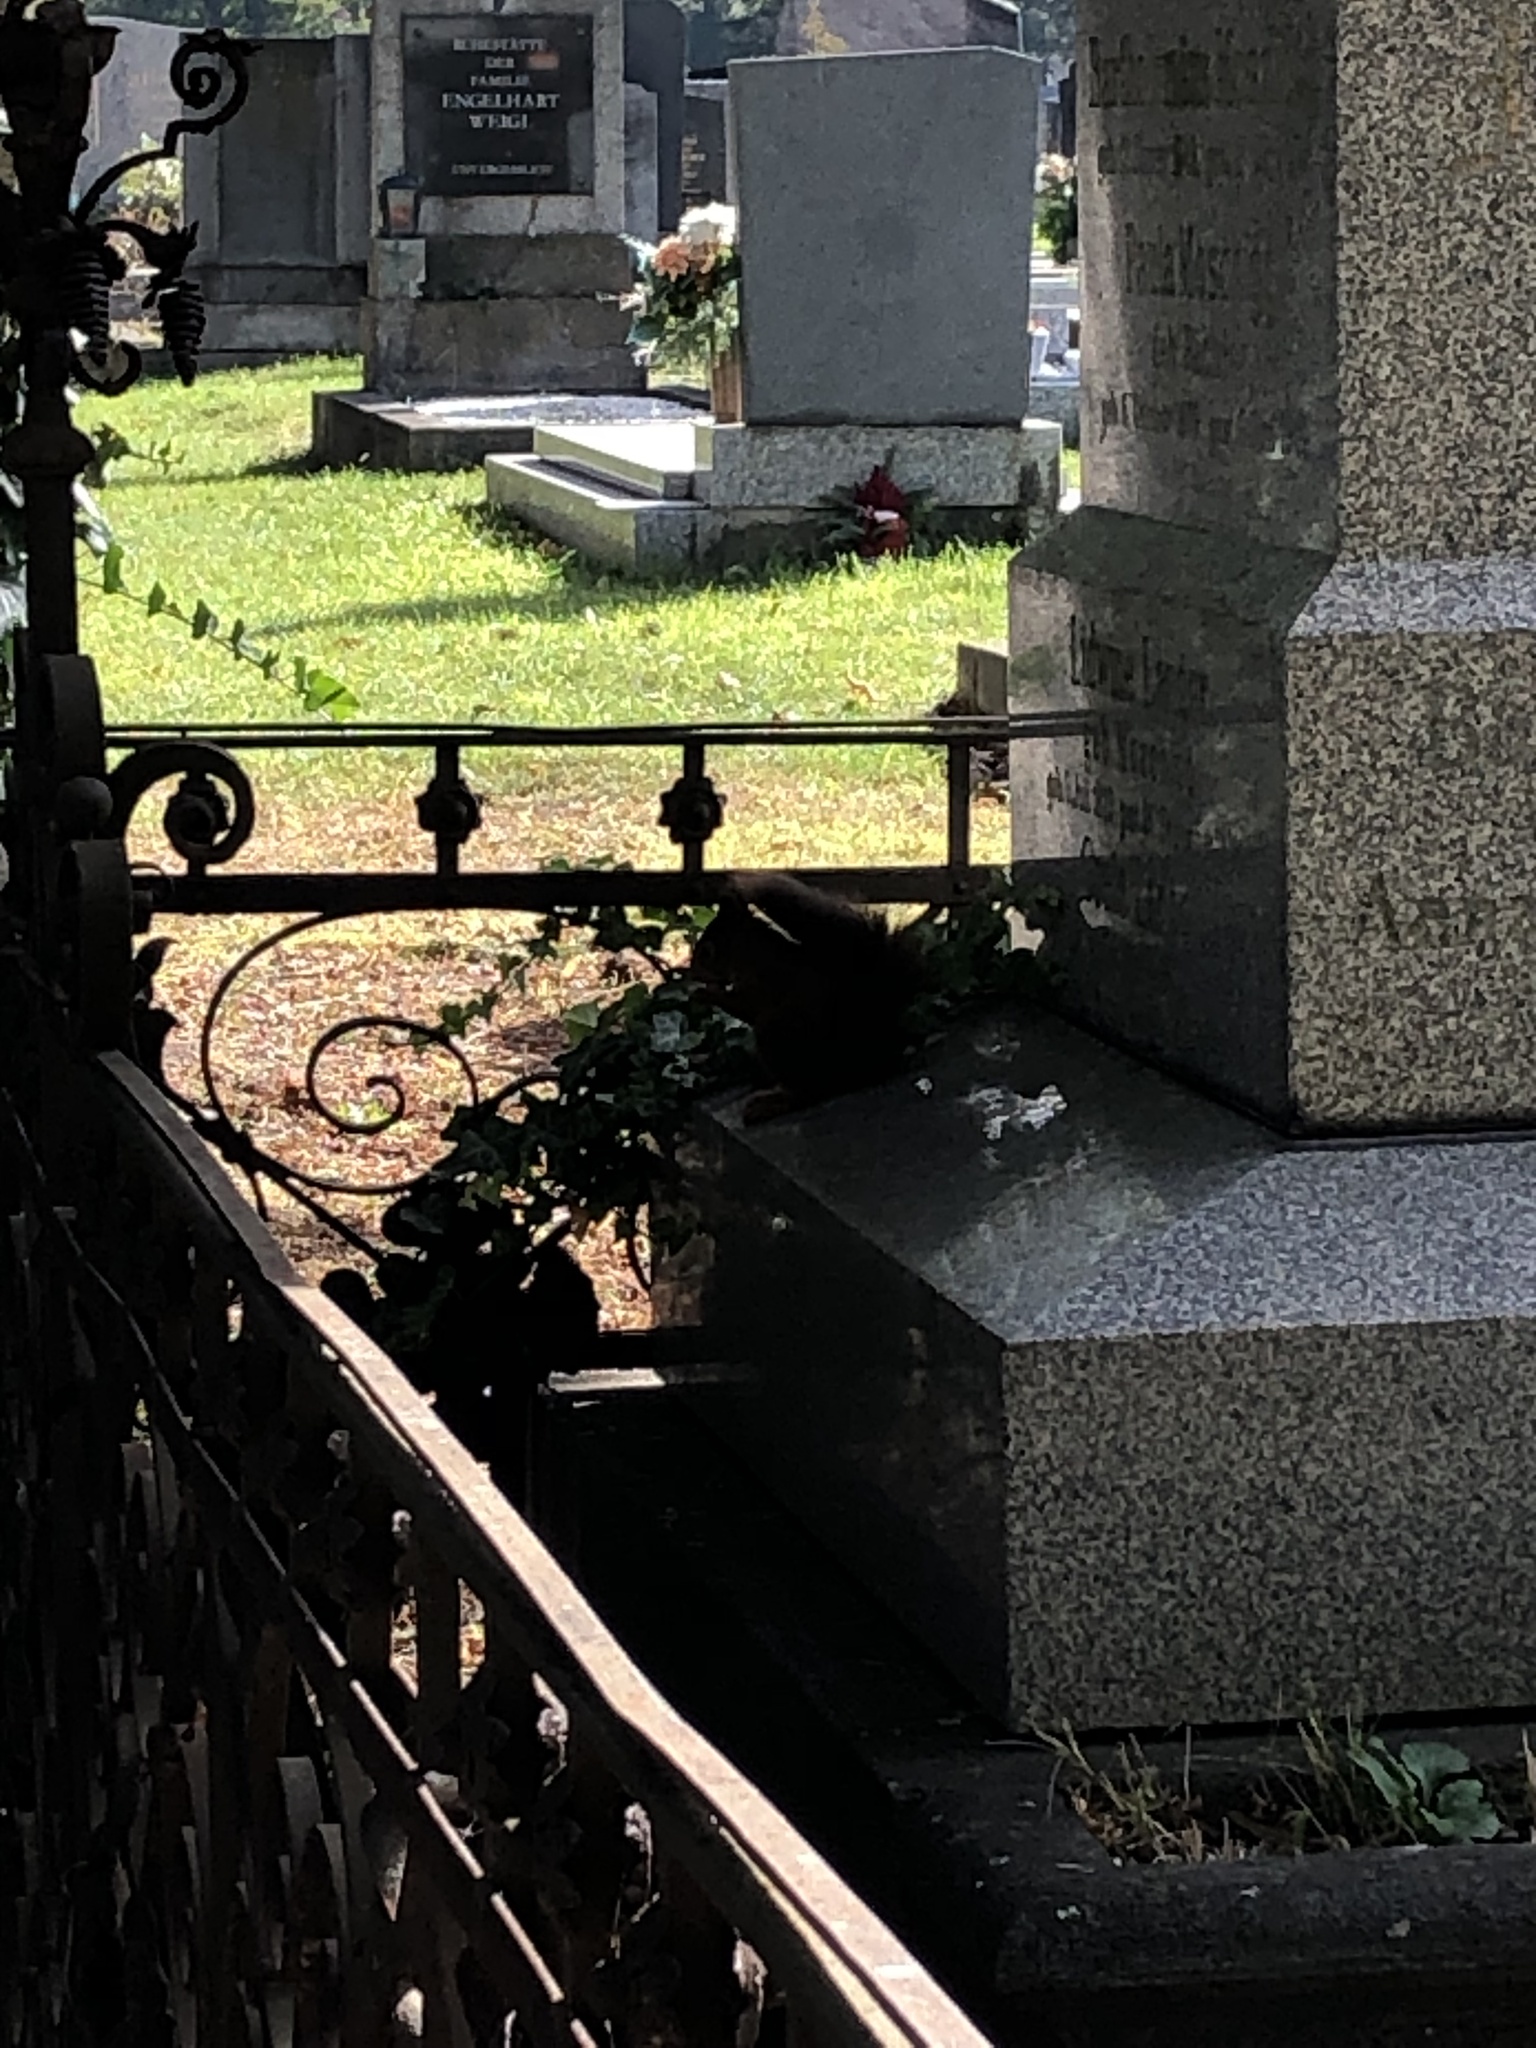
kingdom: Animalia
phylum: Chordata
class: Mammalia
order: Rodentia
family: Sciuridae
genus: Sciurus
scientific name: Sciurus vulgaris
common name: Eurasian red squirrel
